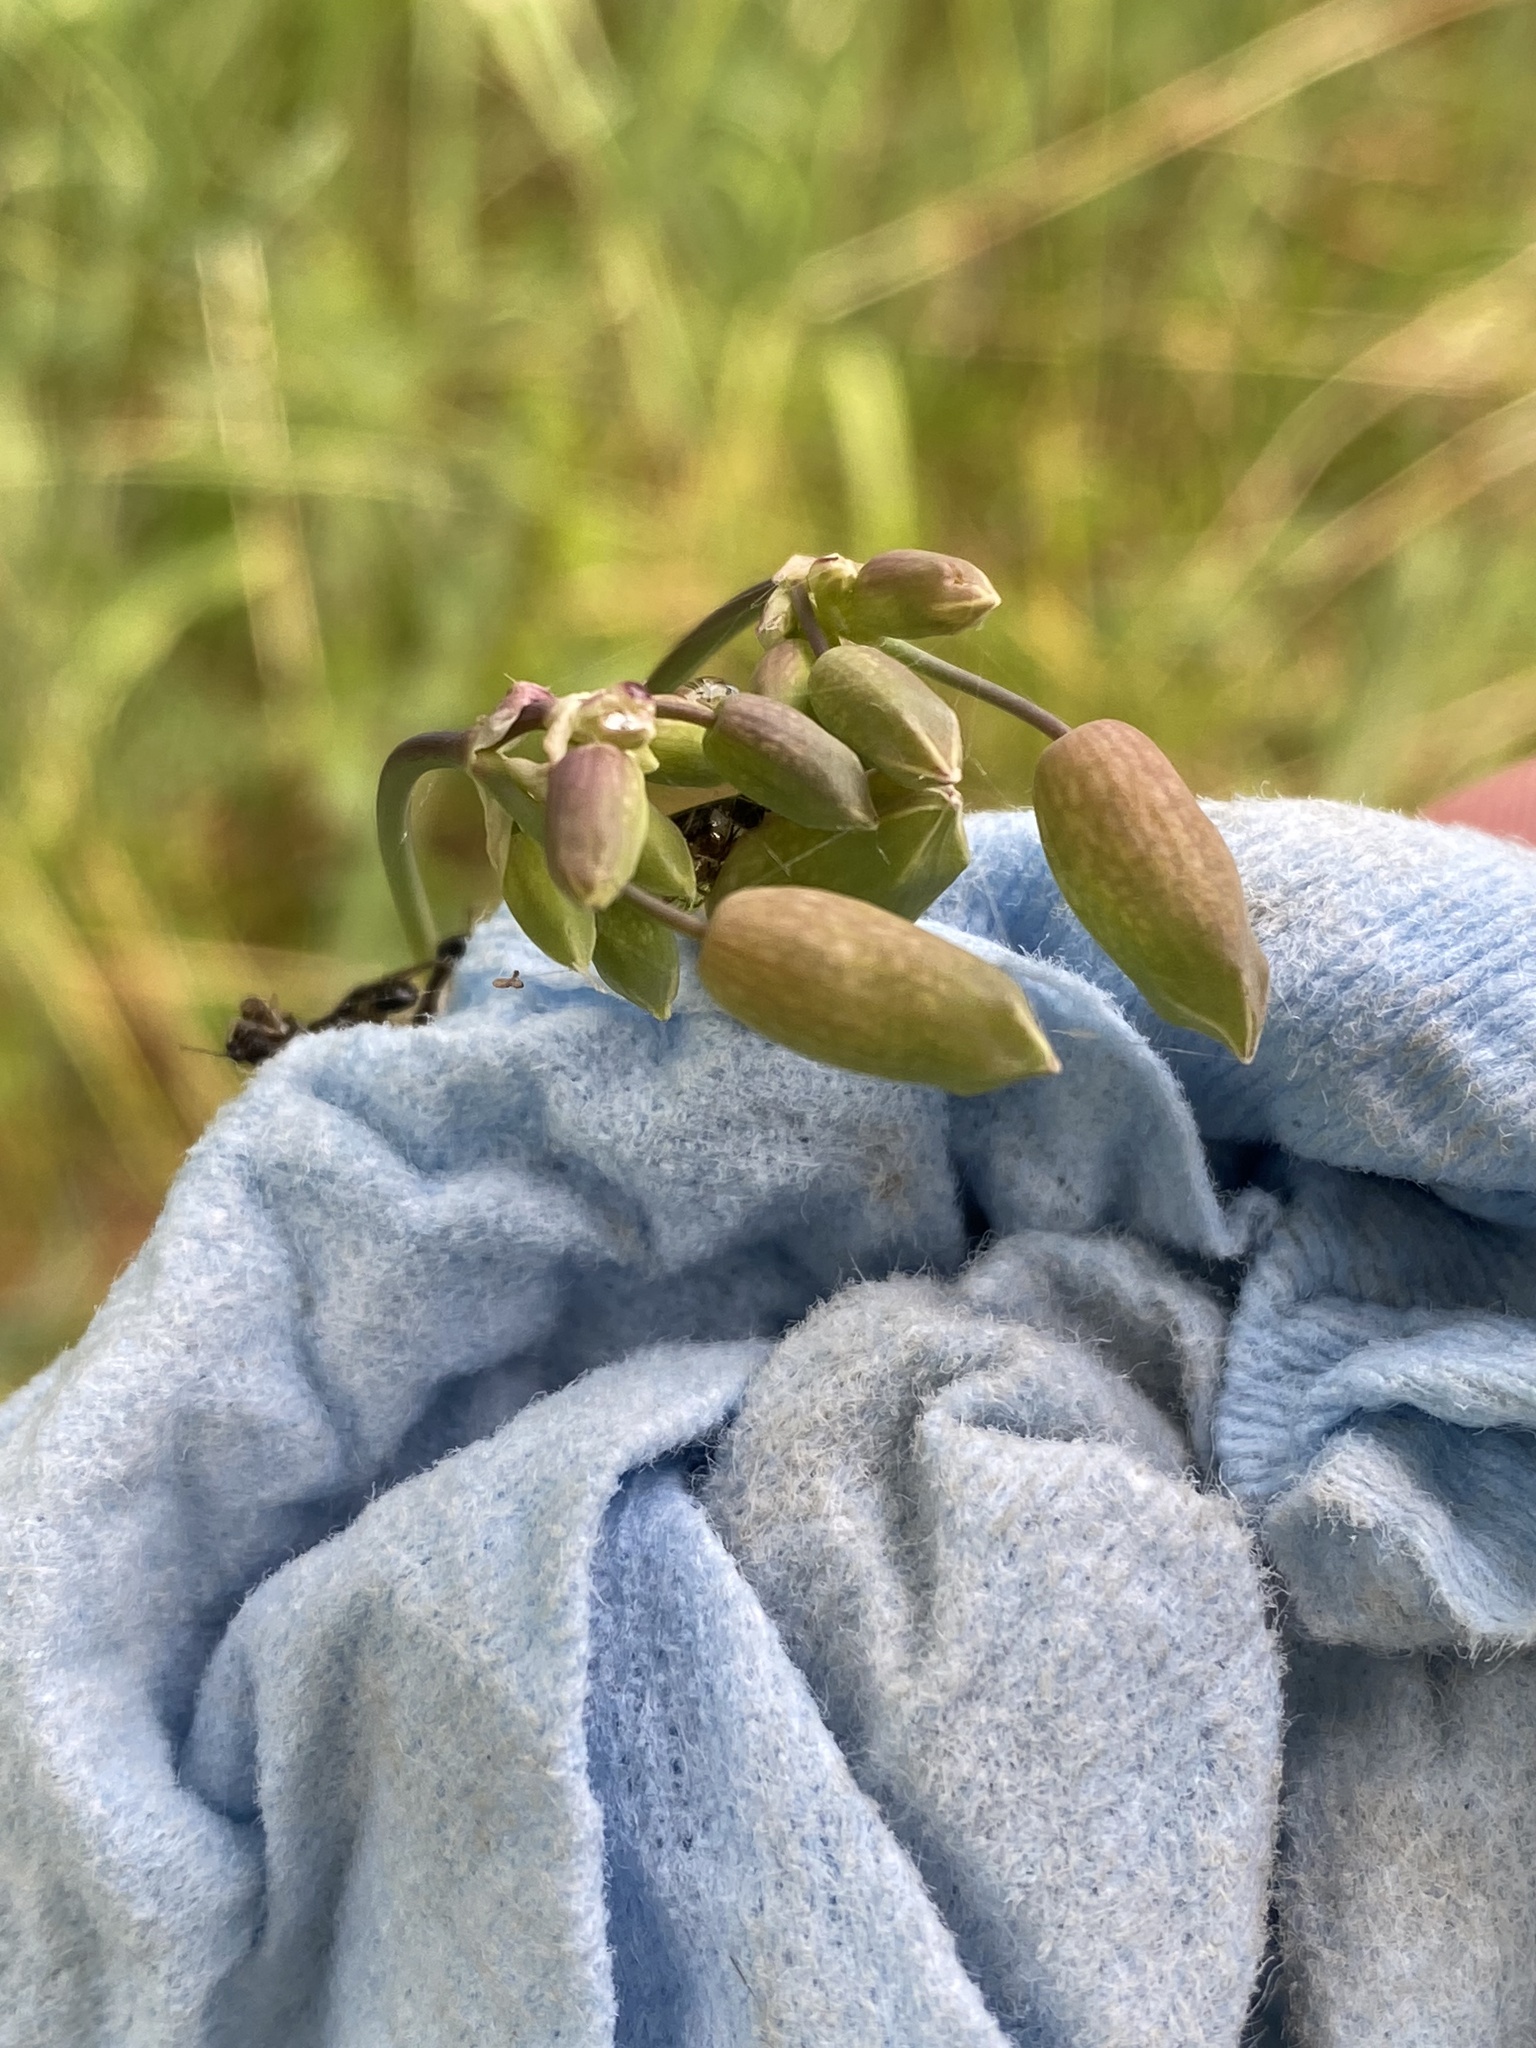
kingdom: Plantae
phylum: Tracheophyta
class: Magnoliopsida
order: Caryophyllales
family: Caryophyllaceae
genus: Silene
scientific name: Silene vulgaris
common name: Bladder campion
